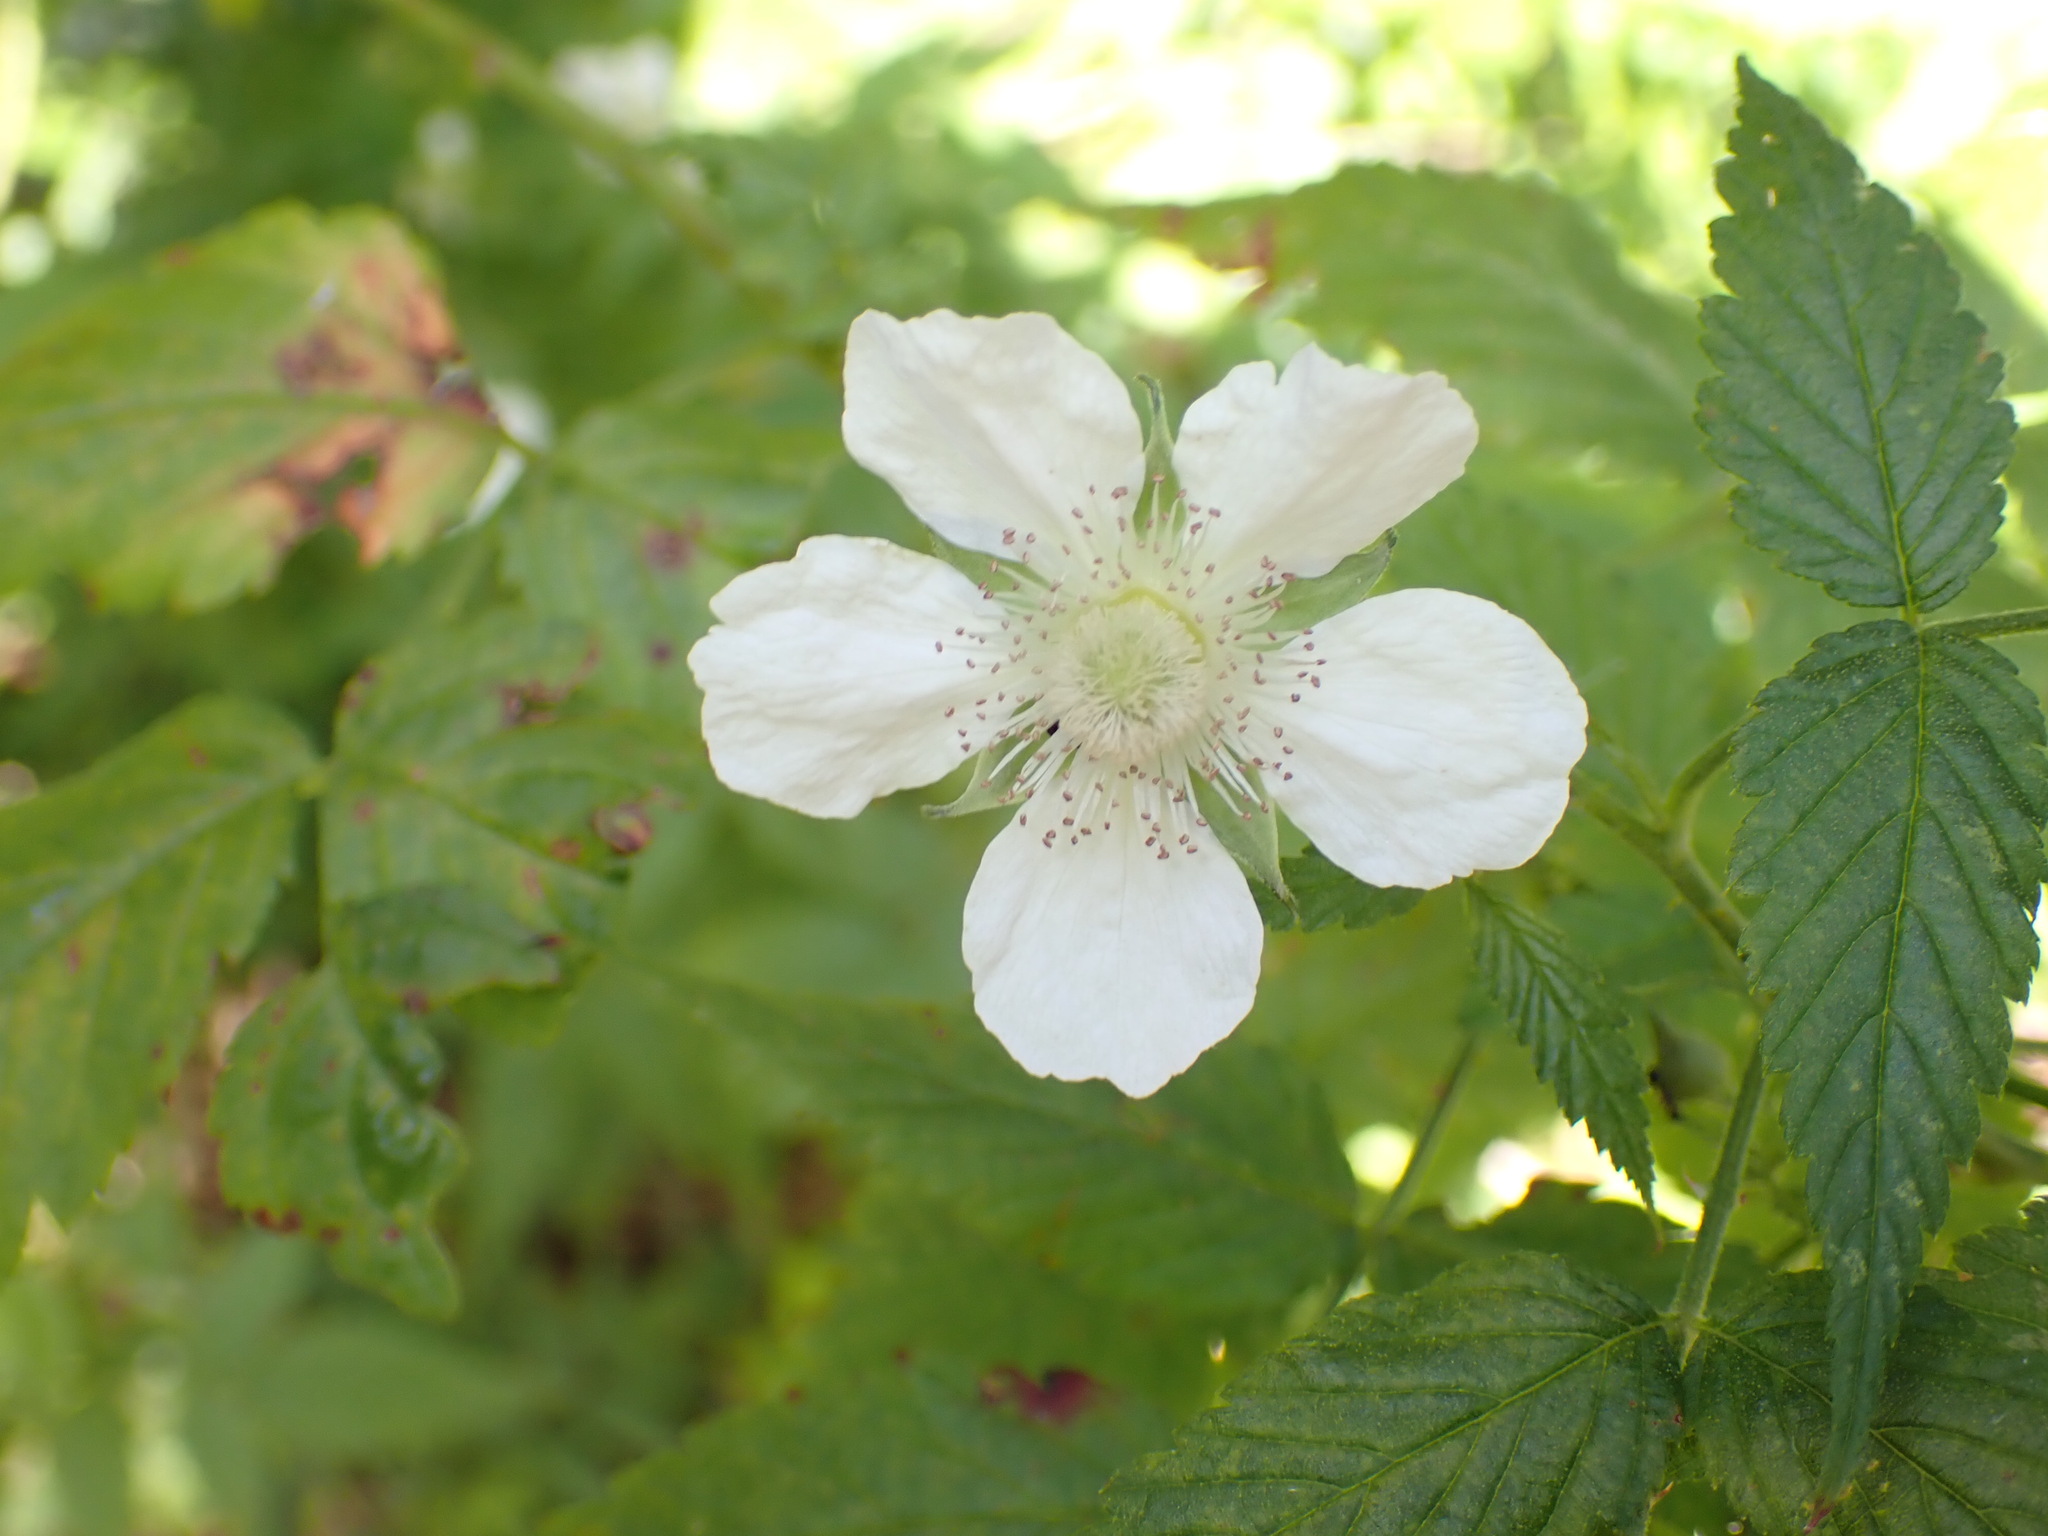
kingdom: Plantae
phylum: Tracheophyta
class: Magnoliopsida
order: Rosales
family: Rosaceae
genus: Rubus
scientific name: Rubus rosifolius
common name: Roseleaf raspberry
